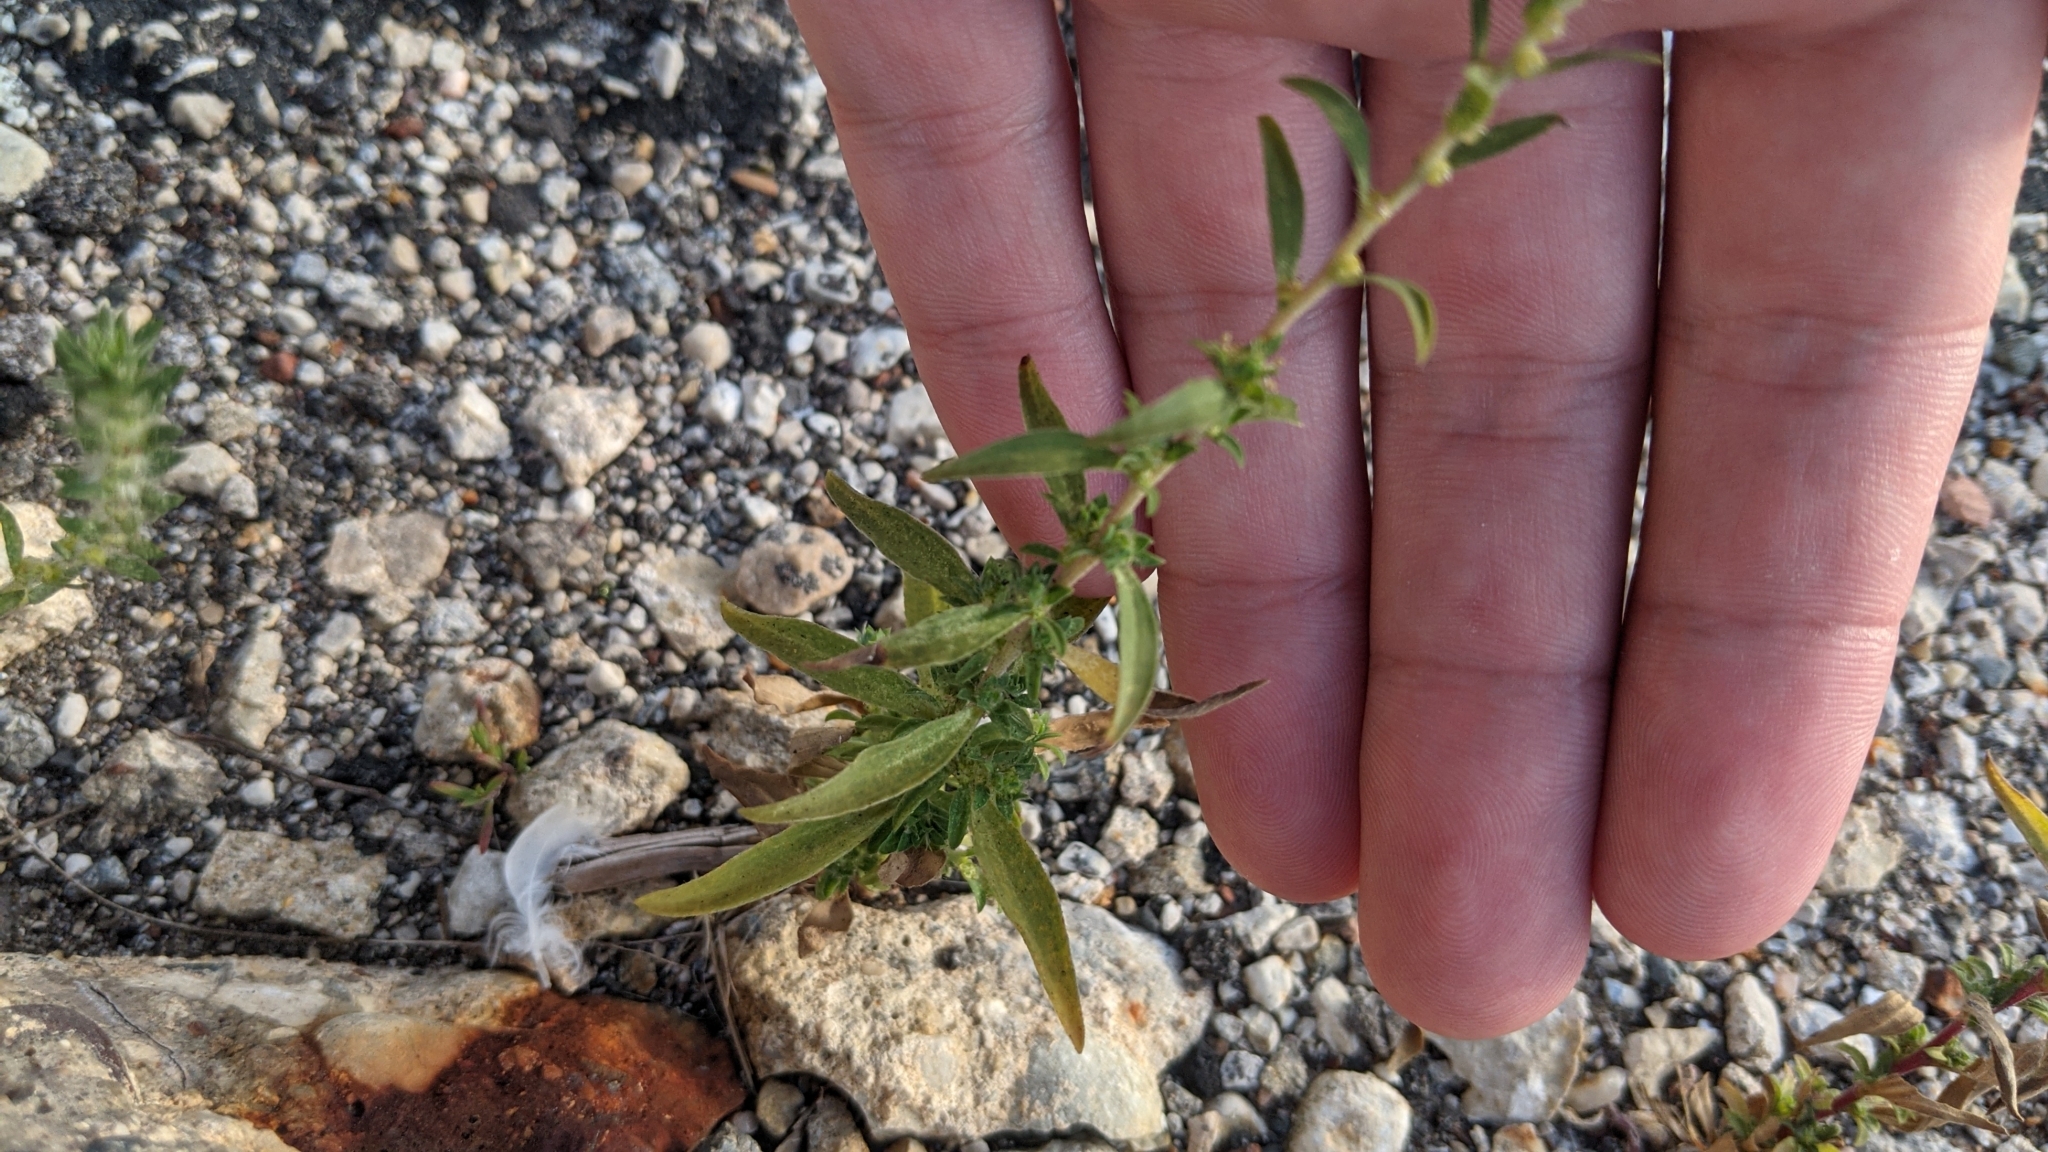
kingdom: Plantae
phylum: Tracheophyta
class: Magnoliopsida
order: Caryophyllales
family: Amaranthaceae
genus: Bassia
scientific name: Bassia scoparia
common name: Belvedere
